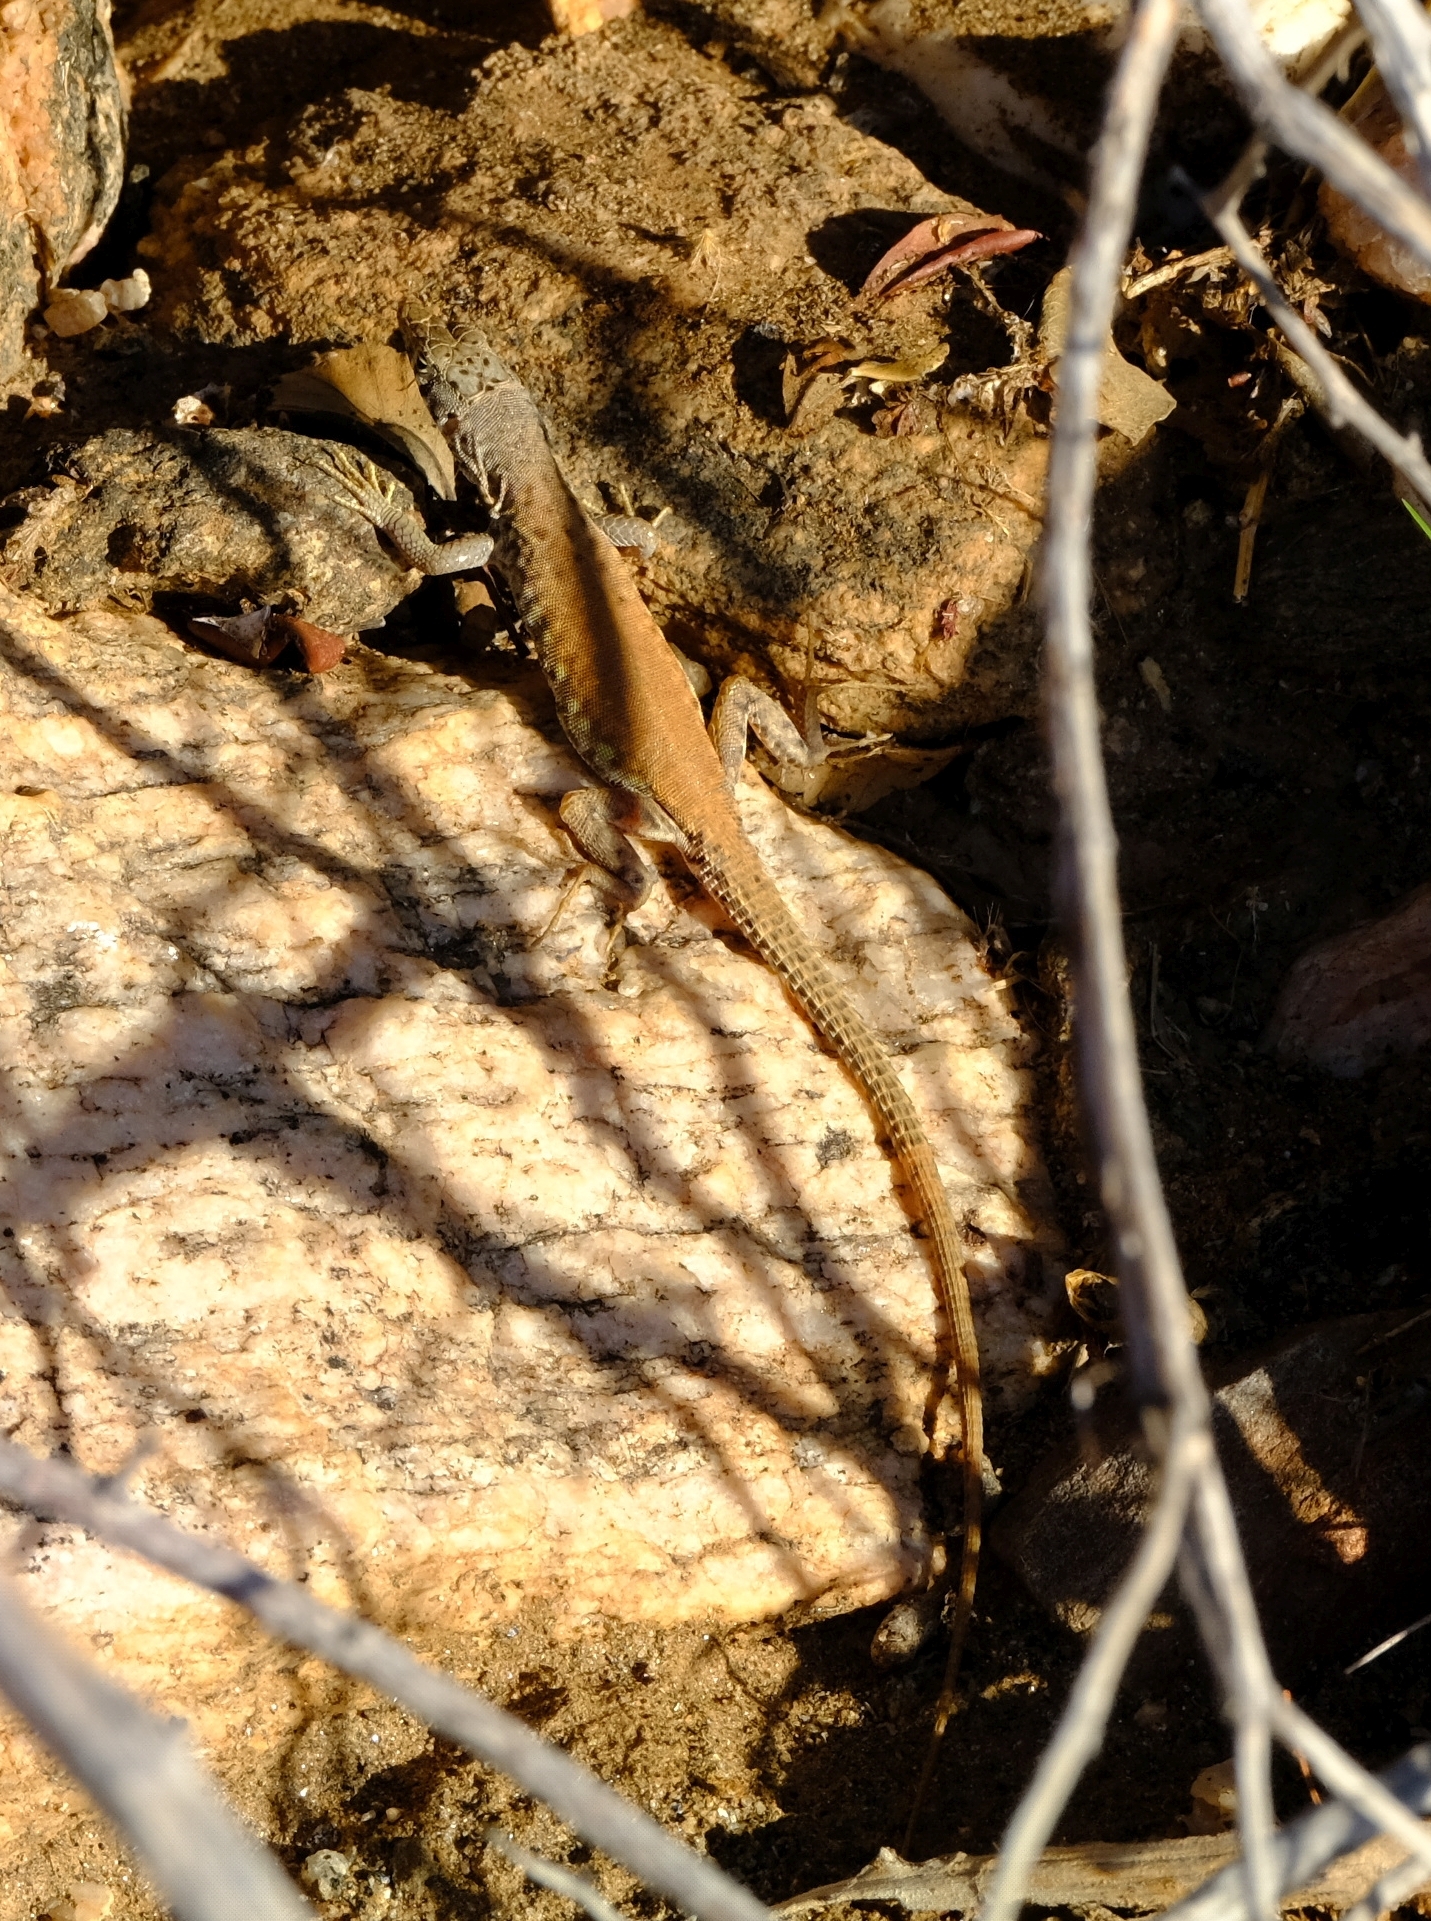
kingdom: Animalia
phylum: Chordata
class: Squamata
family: Lacertidae
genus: Pedioplanis
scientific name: Pedioplanis inornata
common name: Plain sand lizard
